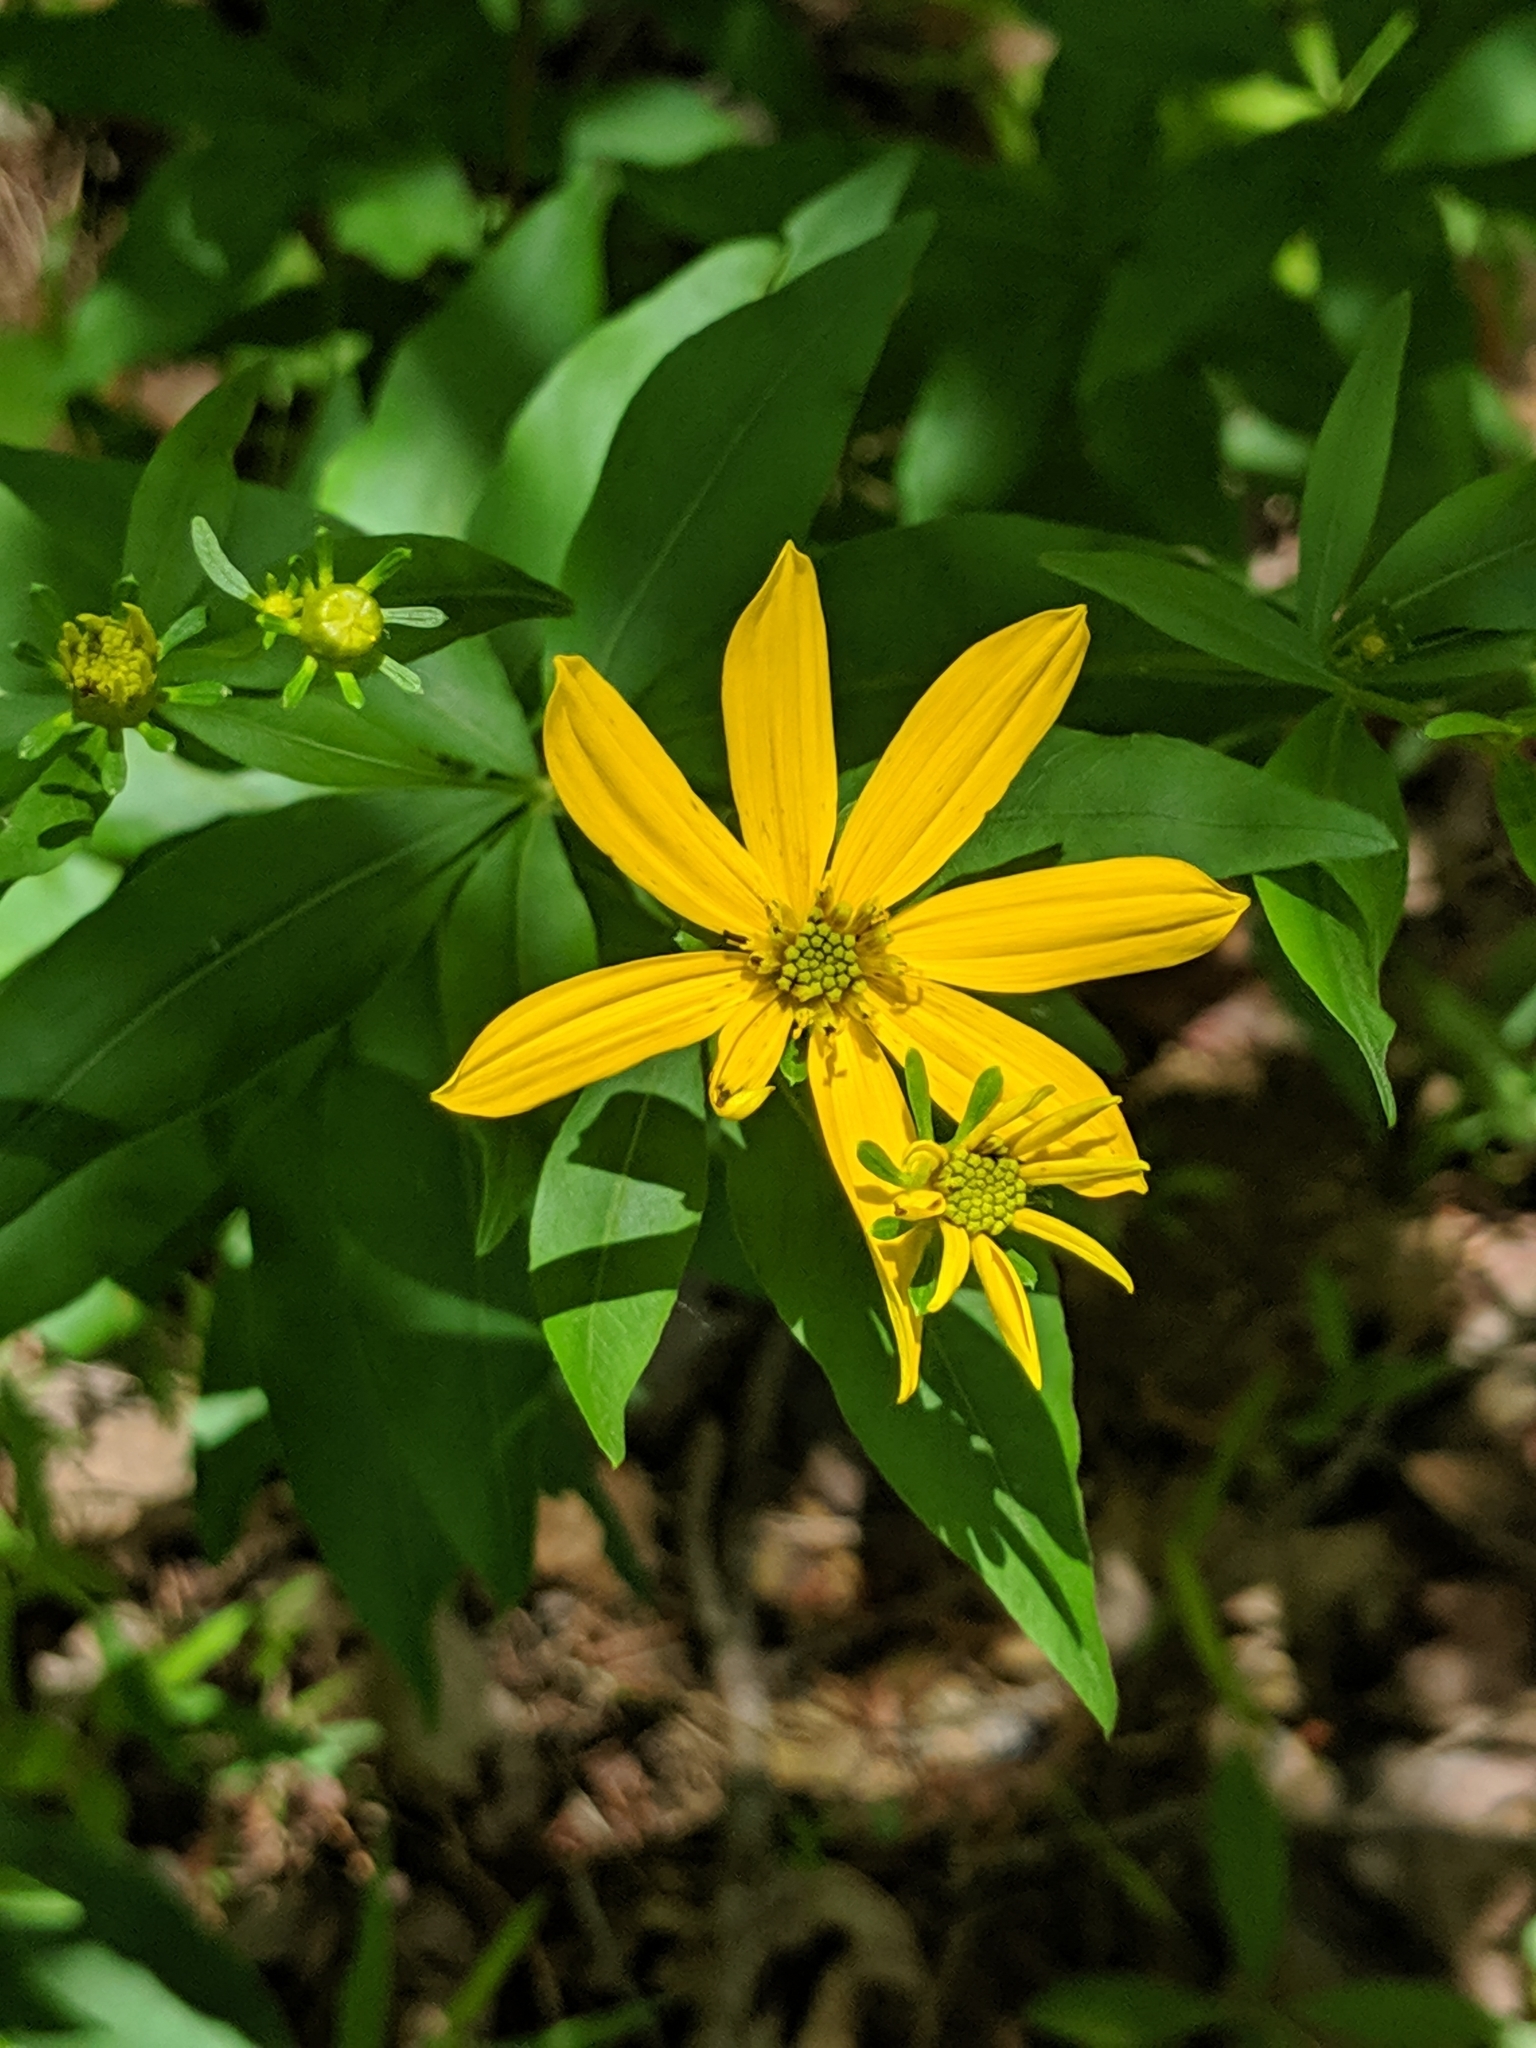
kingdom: Plantae
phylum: Tracheophyta
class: Magnoliopsida
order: Asterales
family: Asteraceae
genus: Coreopsis
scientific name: Coreopsis major
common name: Forest tickseed
